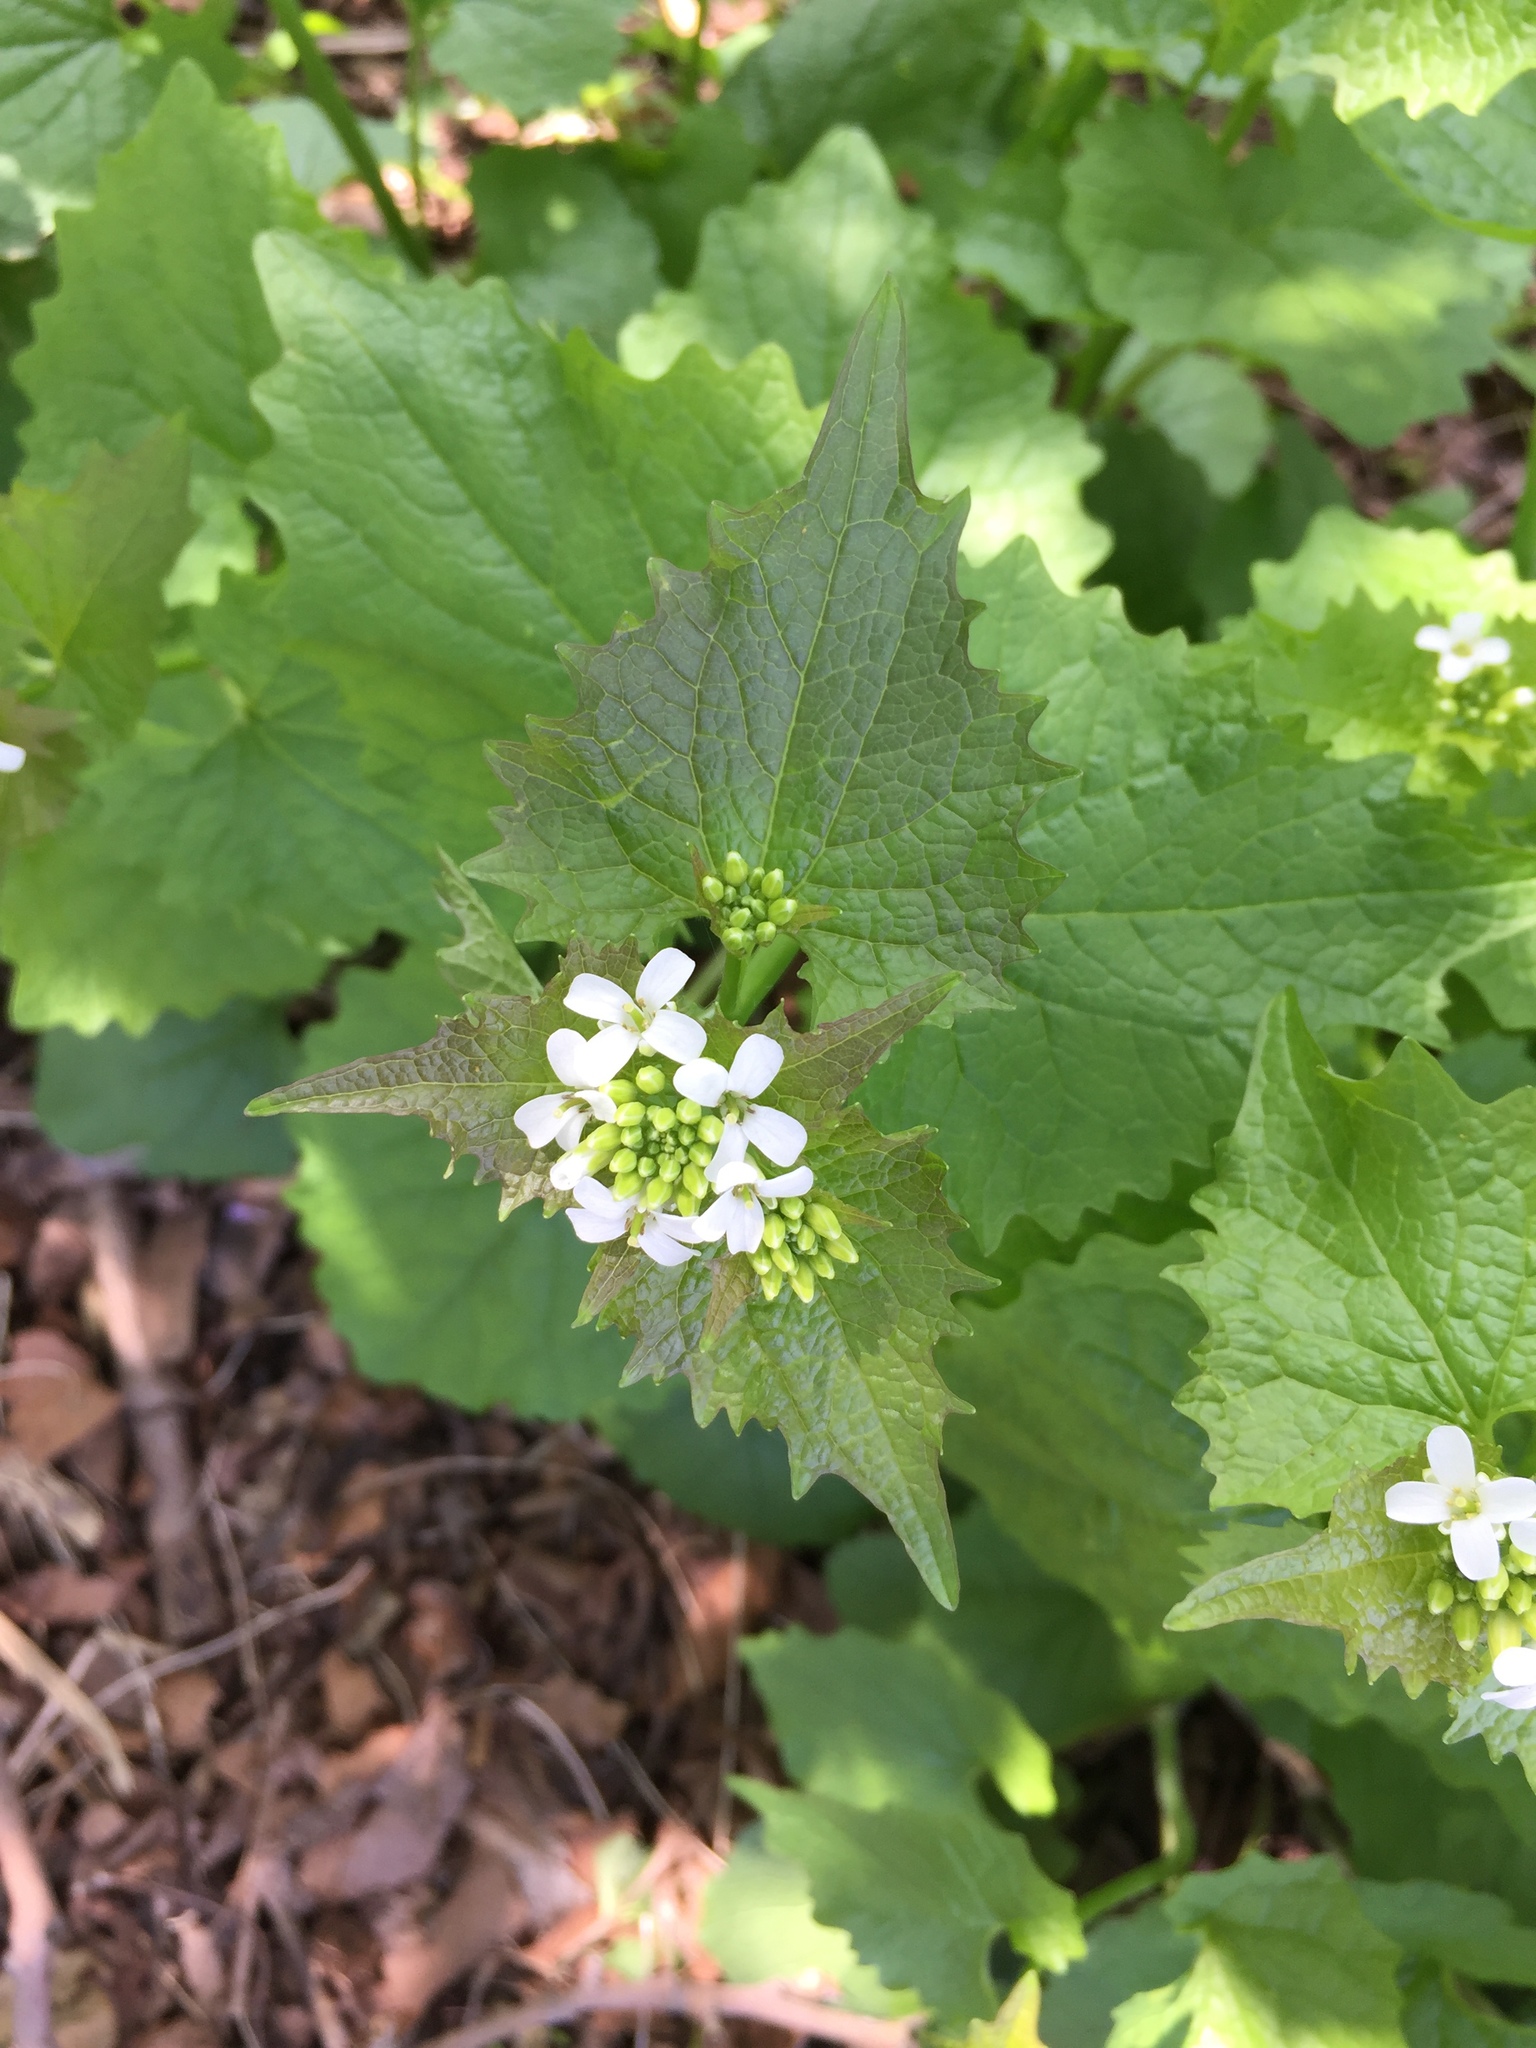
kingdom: Plantae
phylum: Tracheophyta
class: Magnoliopsida
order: Brassicales
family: Brassicaceae
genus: Alliaria
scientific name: Alliaria petiolata
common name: Garlic mustard
